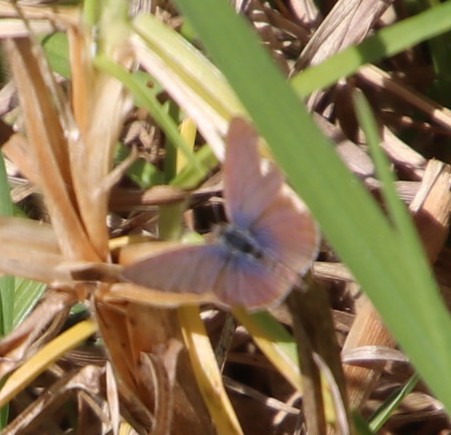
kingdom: Animalia
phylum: Arthropoda
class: Insecta
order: Lepidoptera
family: Lycaenidae
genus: Zizeeria
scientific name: Zizeeria knysna
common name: African grass blue
